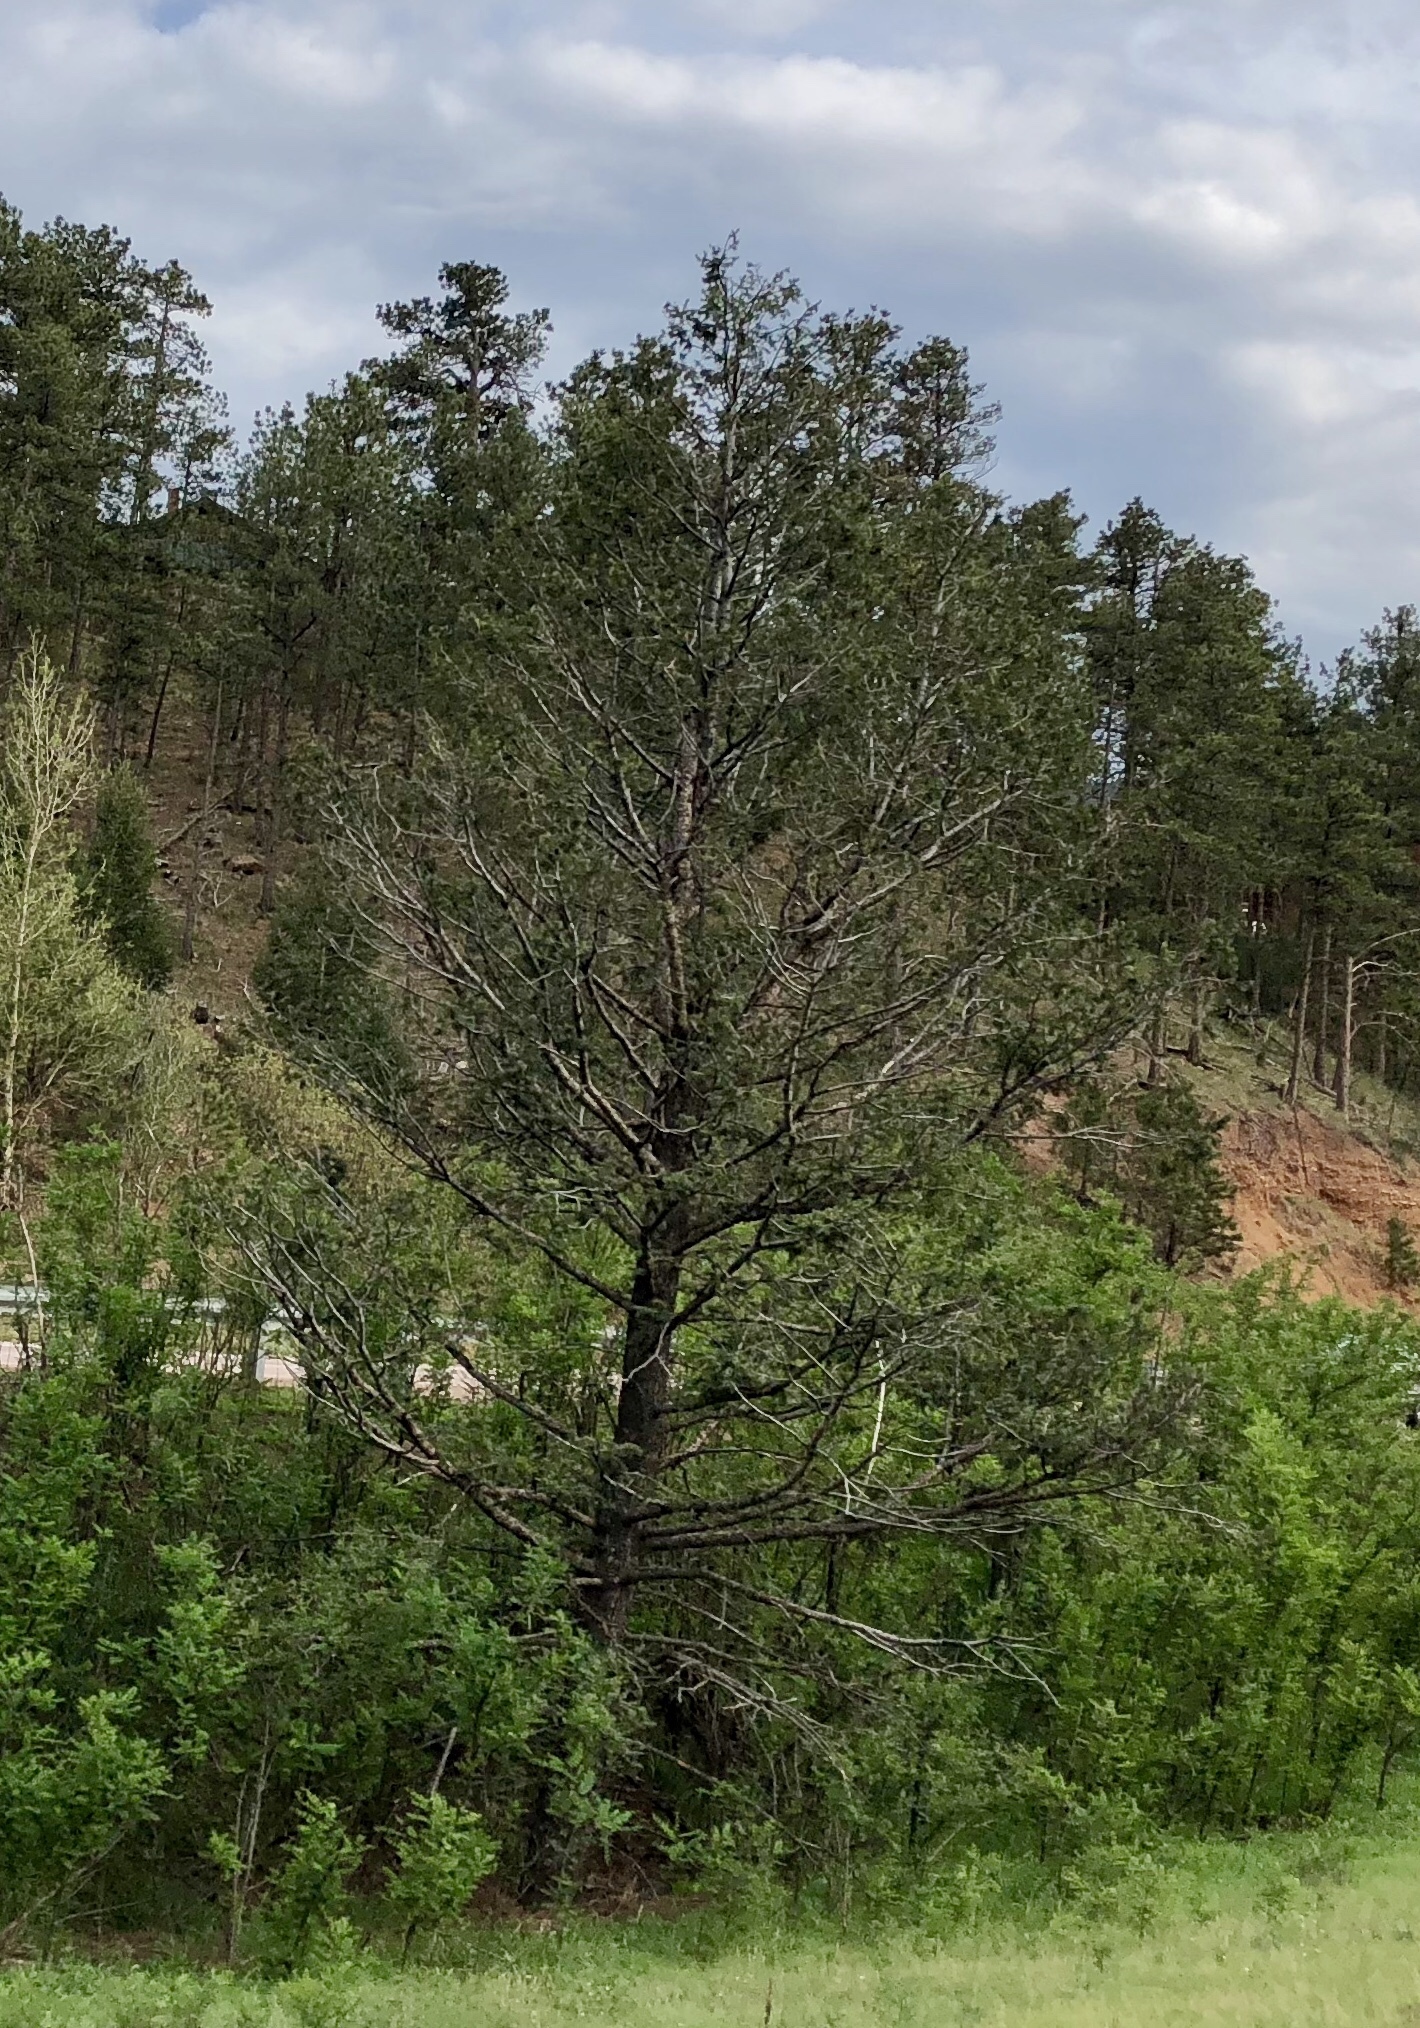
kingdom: Plantae
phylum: Tracheophyta
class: Pinopsida
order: Pinales
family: Pinaceae
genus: Pseudotsuga
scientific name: Pseudotsuga menziesii
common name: Douglas fir
